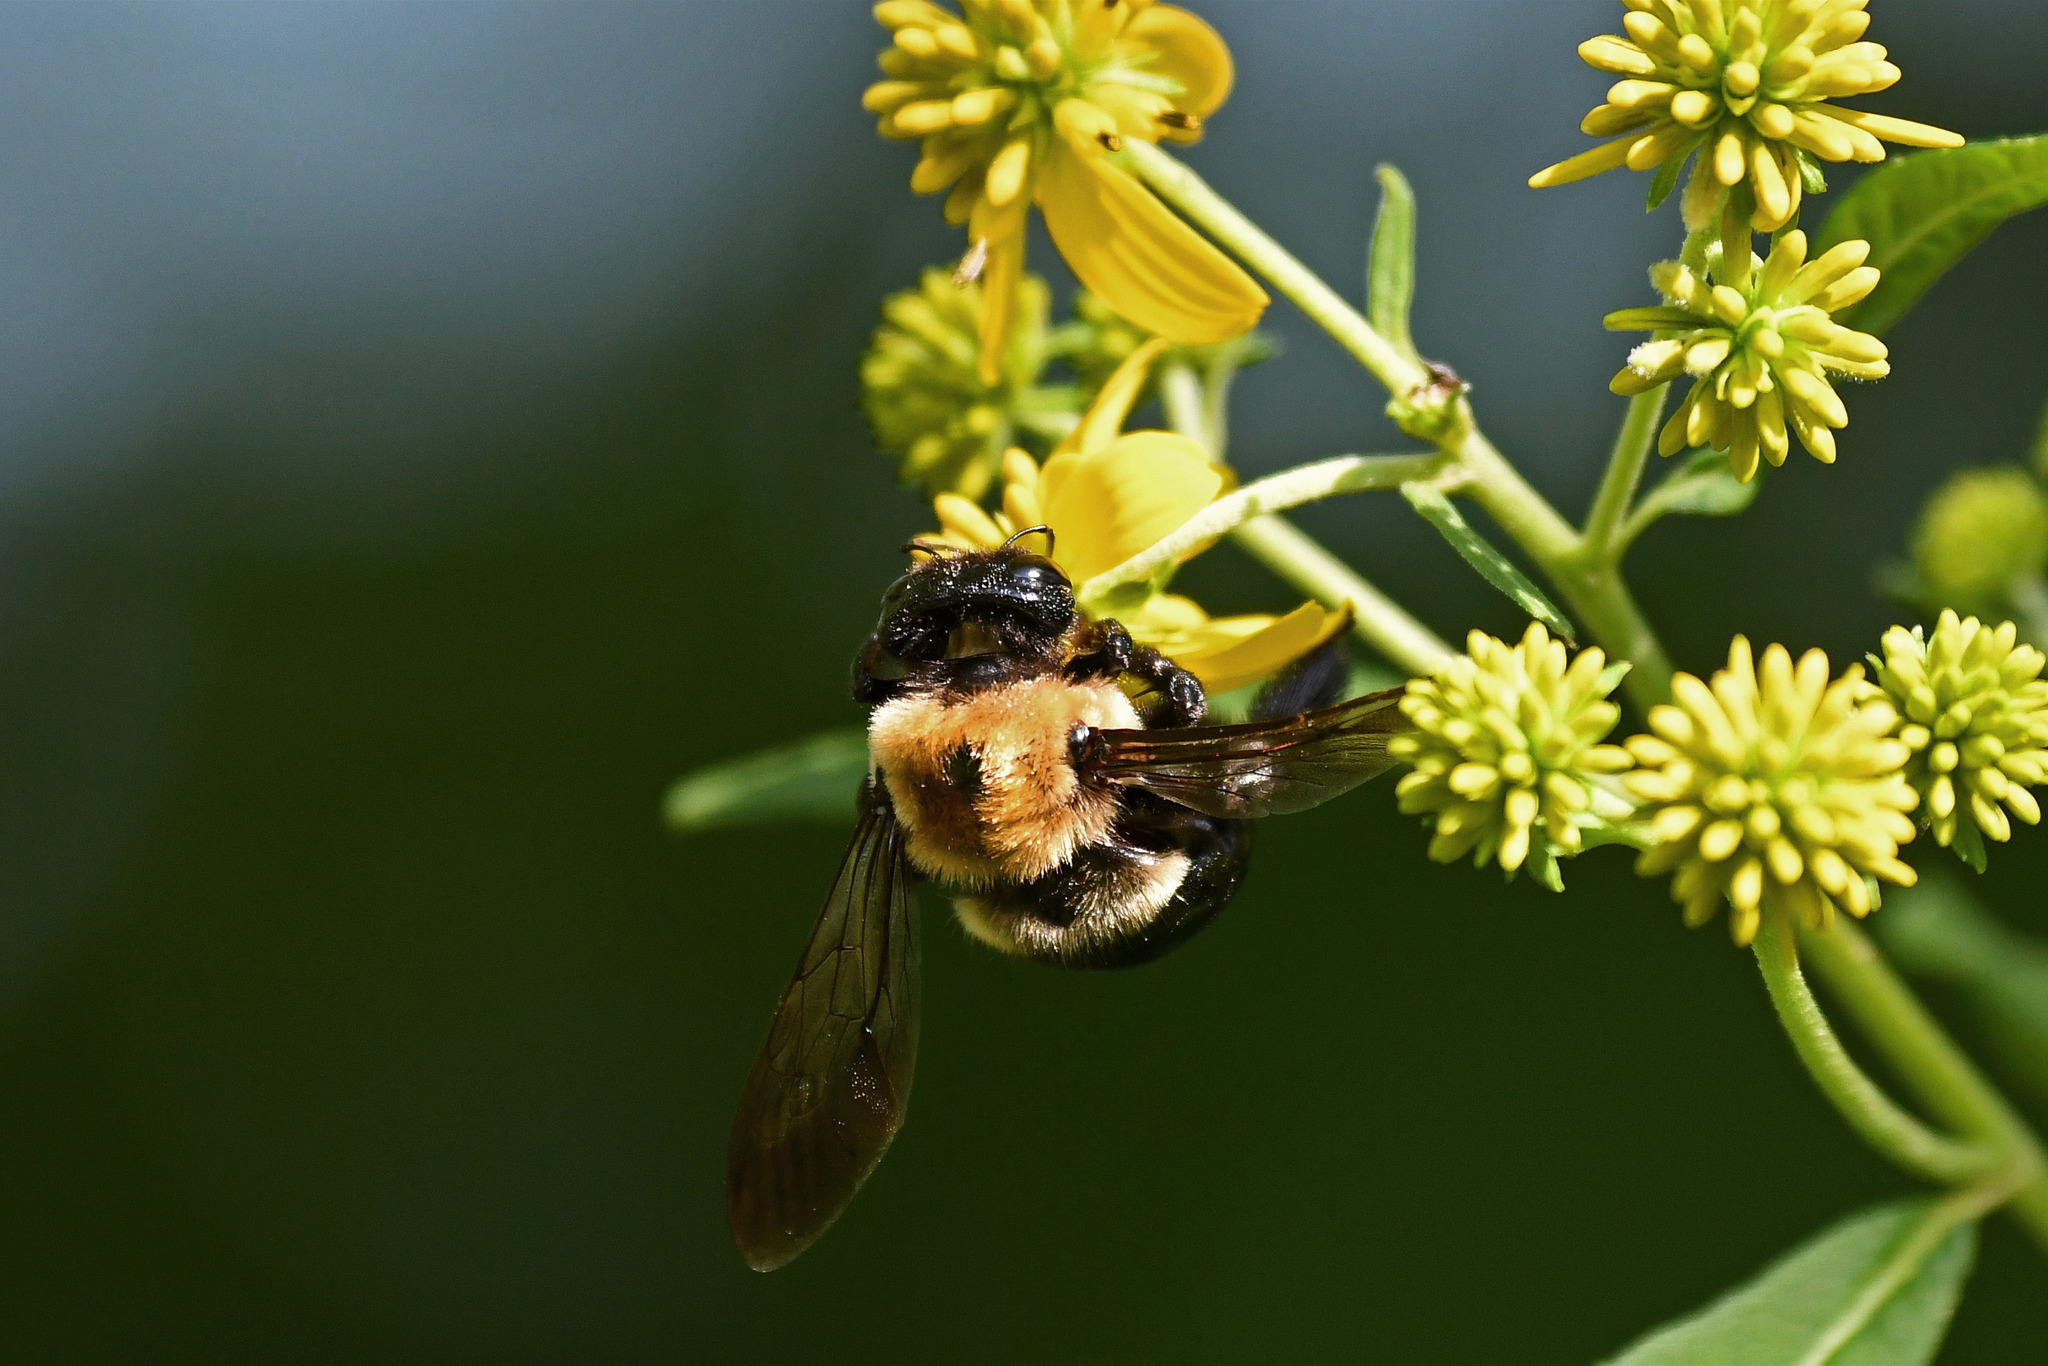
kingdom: Animalia
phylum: Arthropoda
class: Insecta
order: Hymenoptera
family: Apidae
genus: Xylocopa
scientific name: Xylocopa virginica
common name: Carpenter bee
